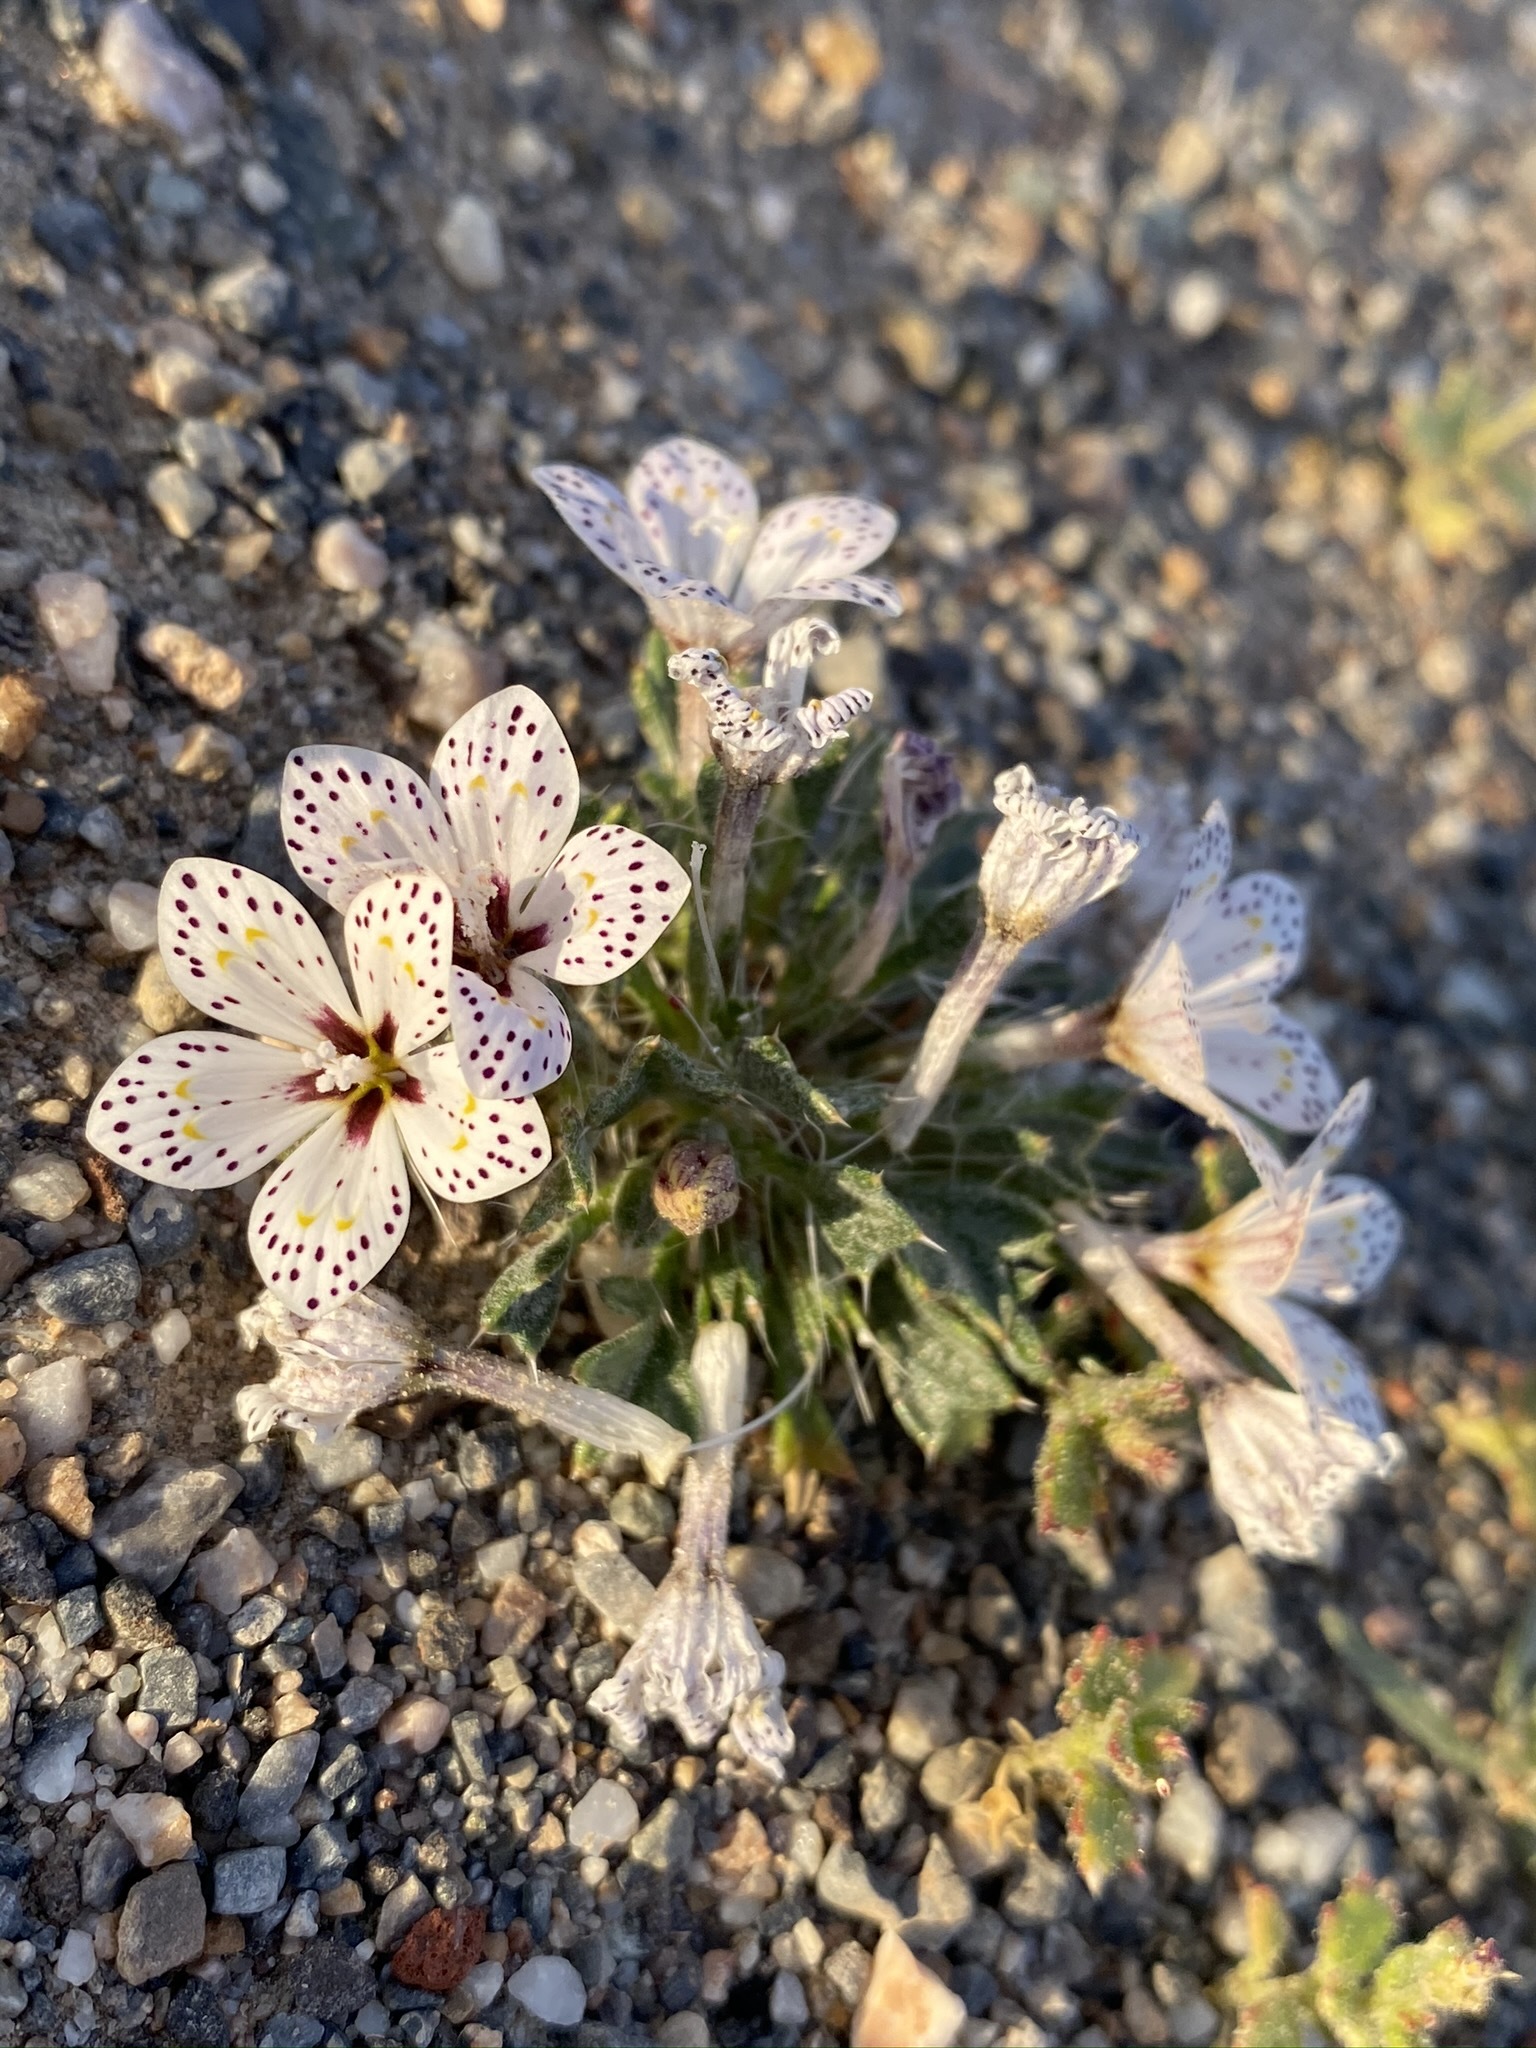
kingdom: Plantae
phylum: Tracheophyta
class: Magnoliopsida
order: Ericales
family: Polemoniaceae
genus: Langloisia
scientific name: Langloisia setosissima
